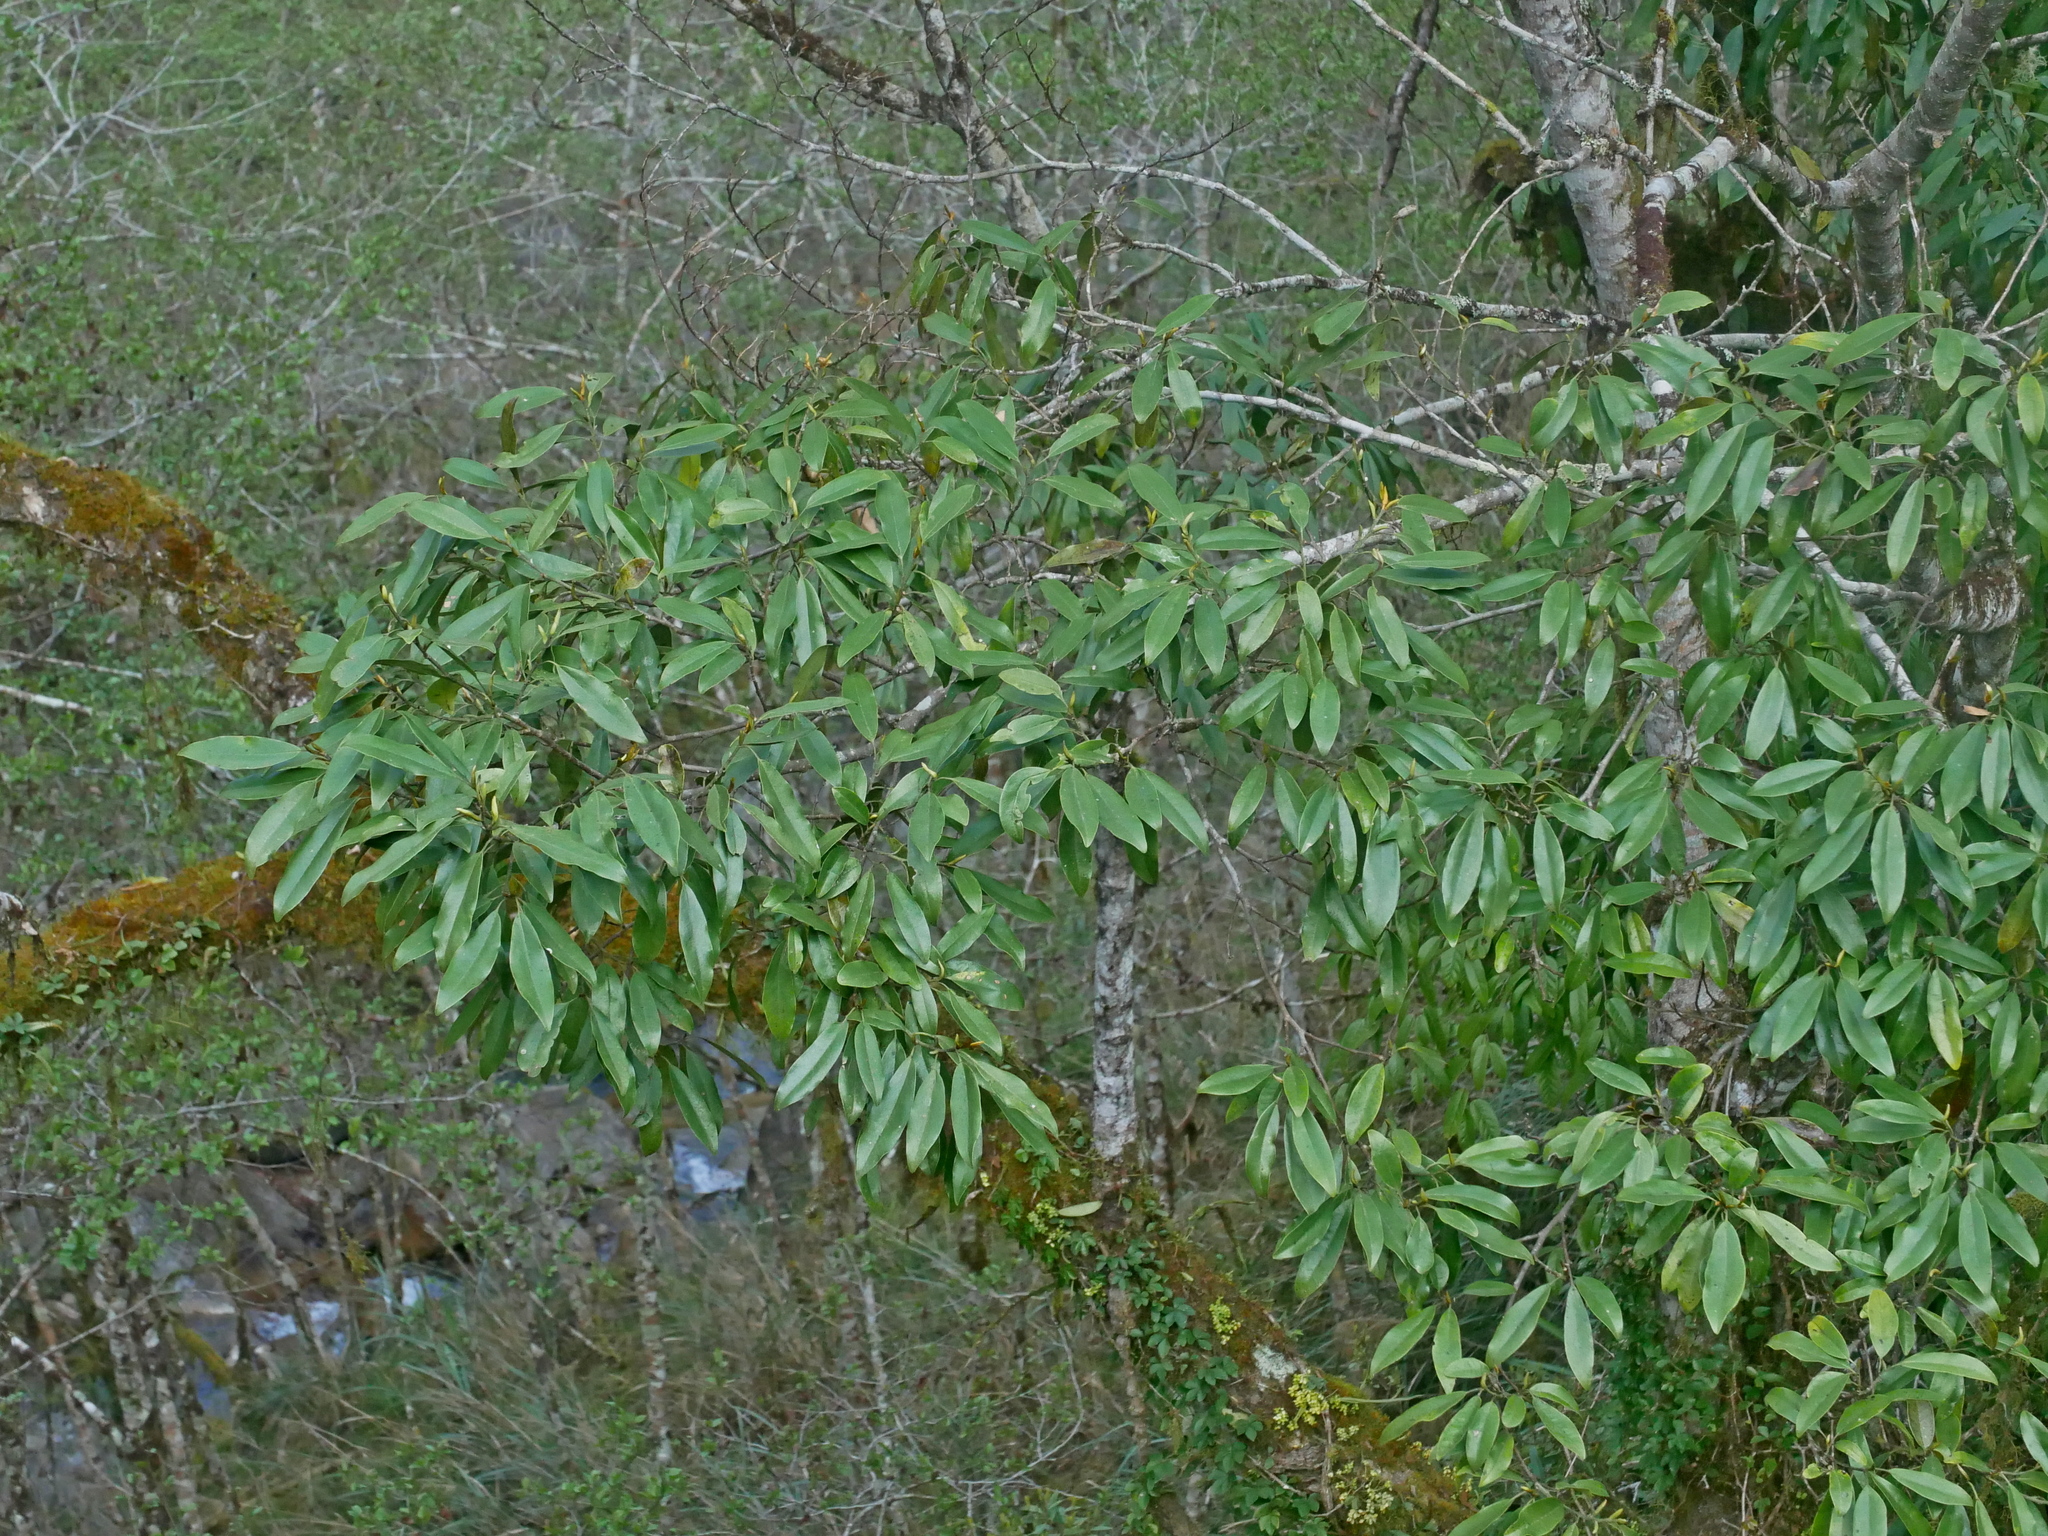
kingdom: Plantae
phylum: Tracheophyta
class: Magnoliopsida
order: Magnoliales
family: Magnoliaceae
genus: Magnolia
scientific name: Magnolia compressa
